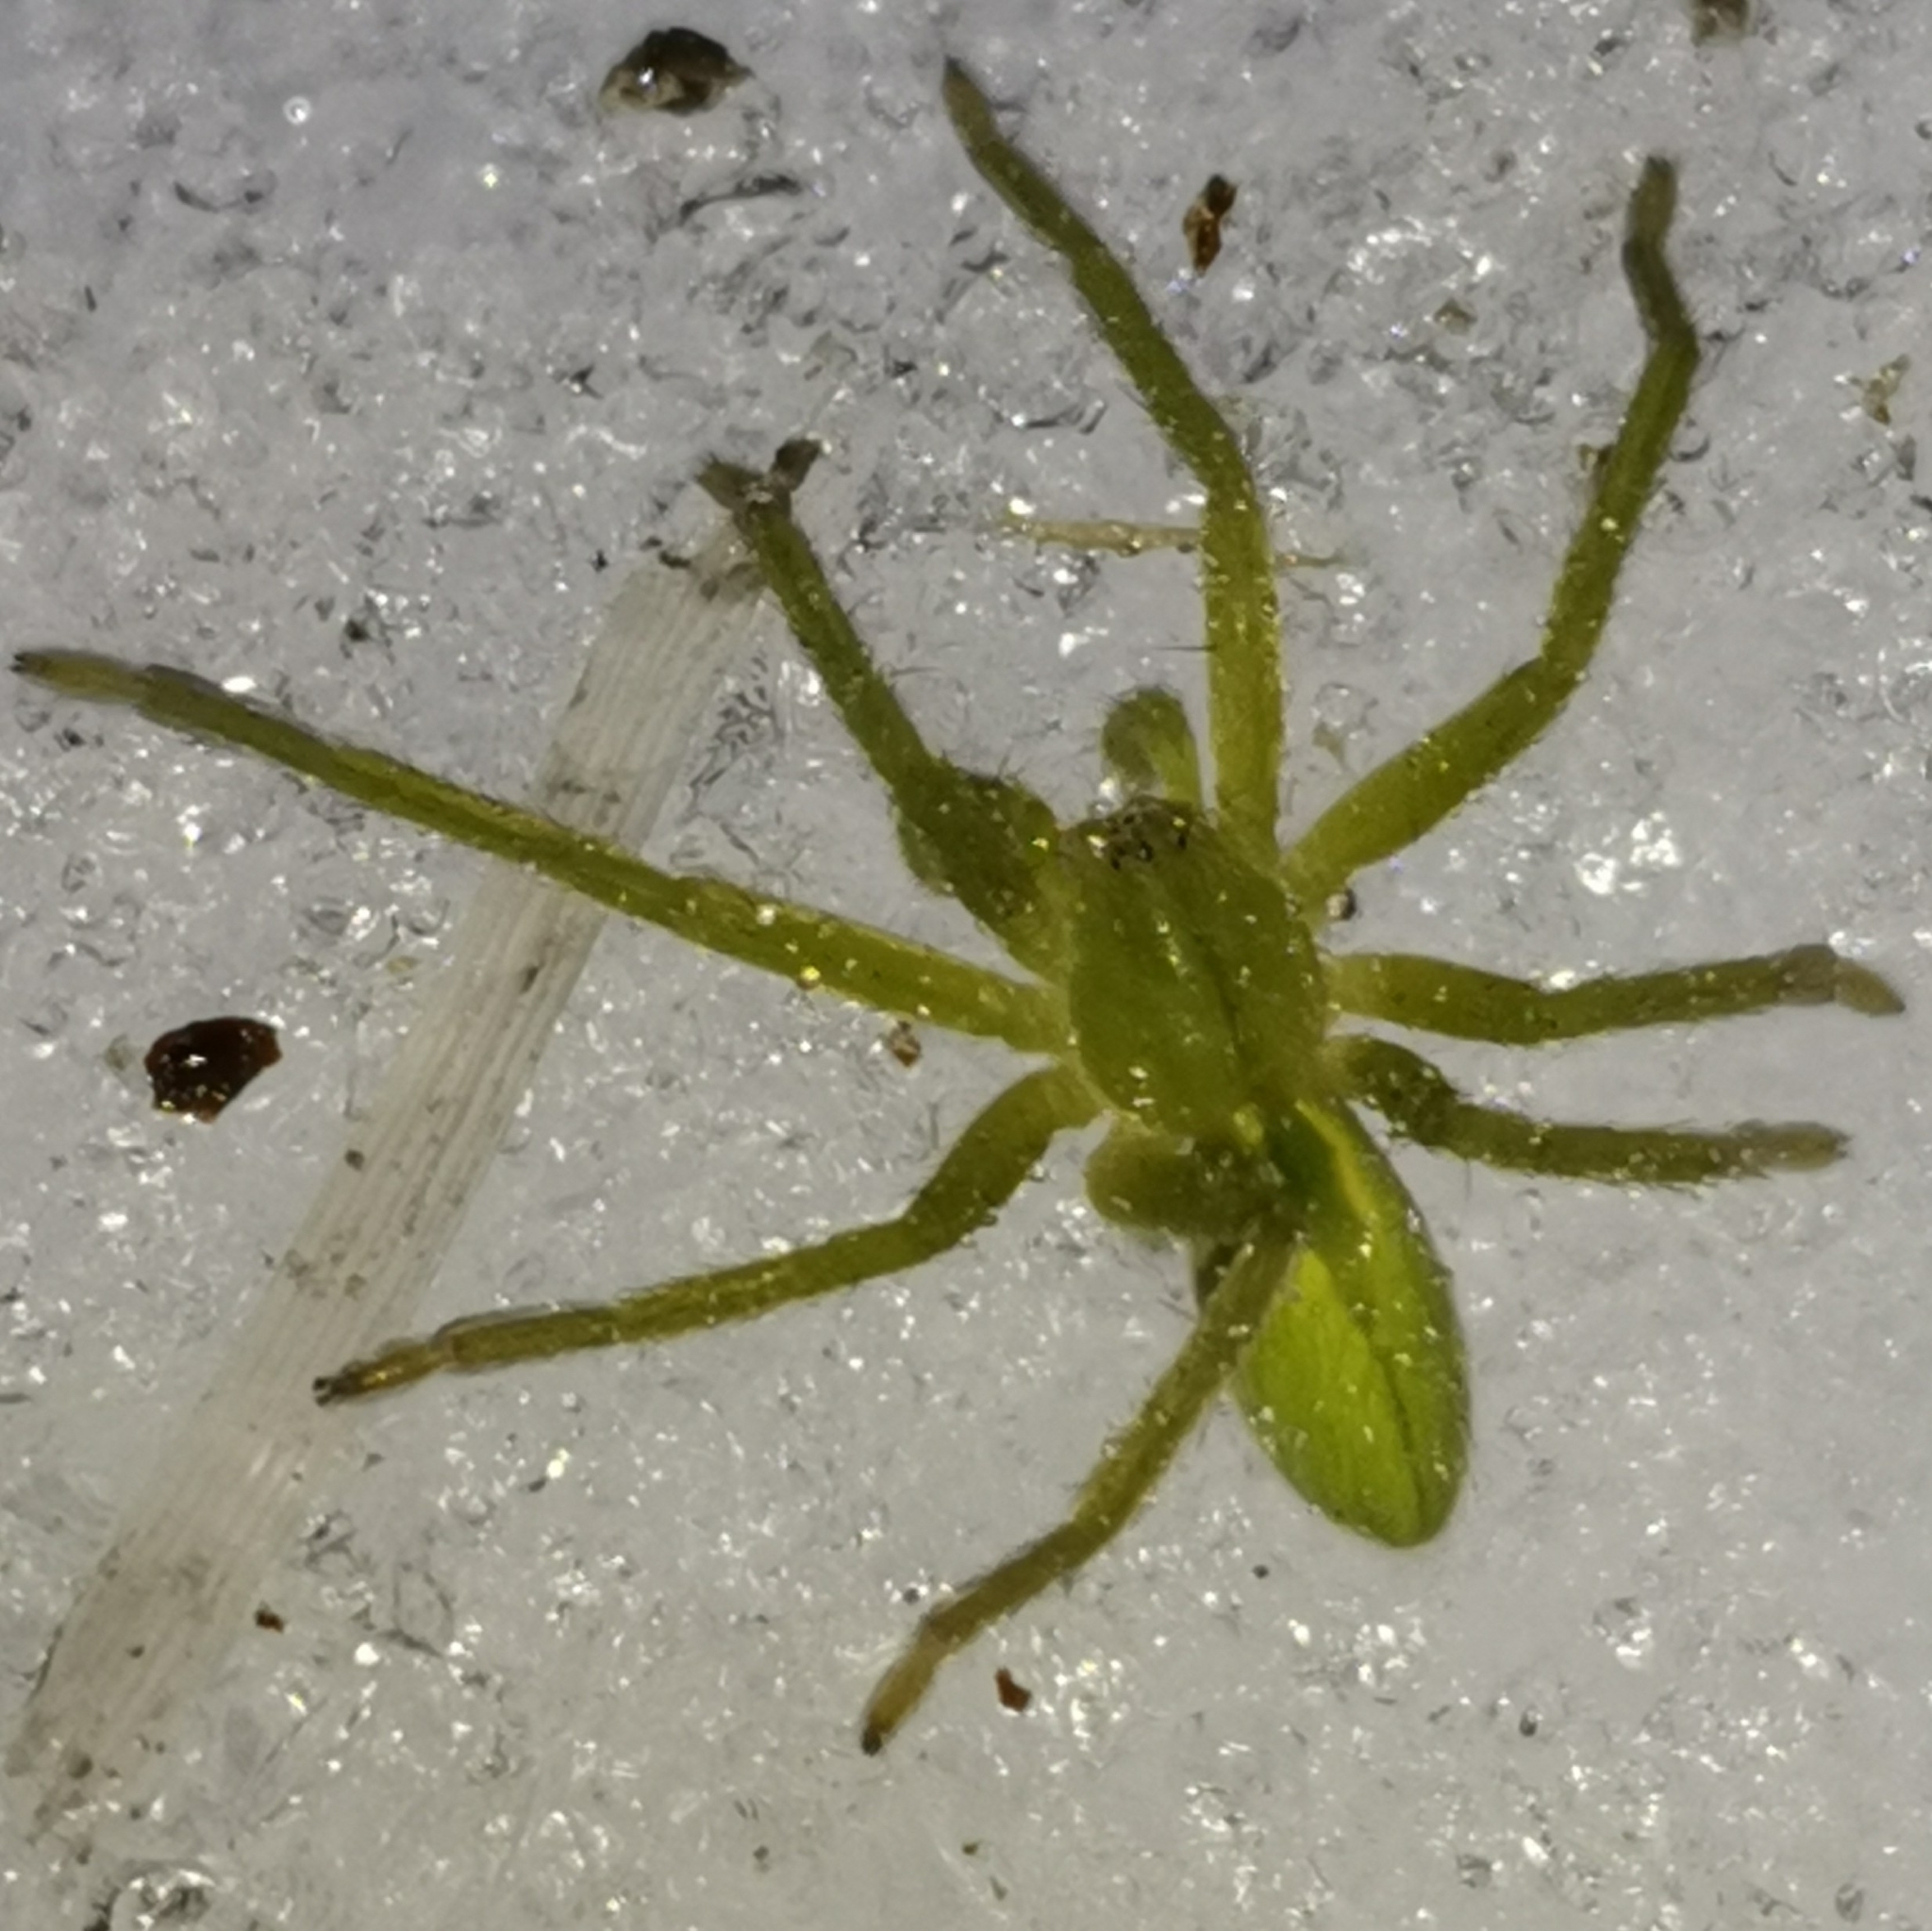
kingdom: Animalia
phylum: Arthropoda
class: Arachnida
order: Araneae
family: Sparassidae
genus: Micrommata
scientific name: Micrommata virescens
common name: Green spider
